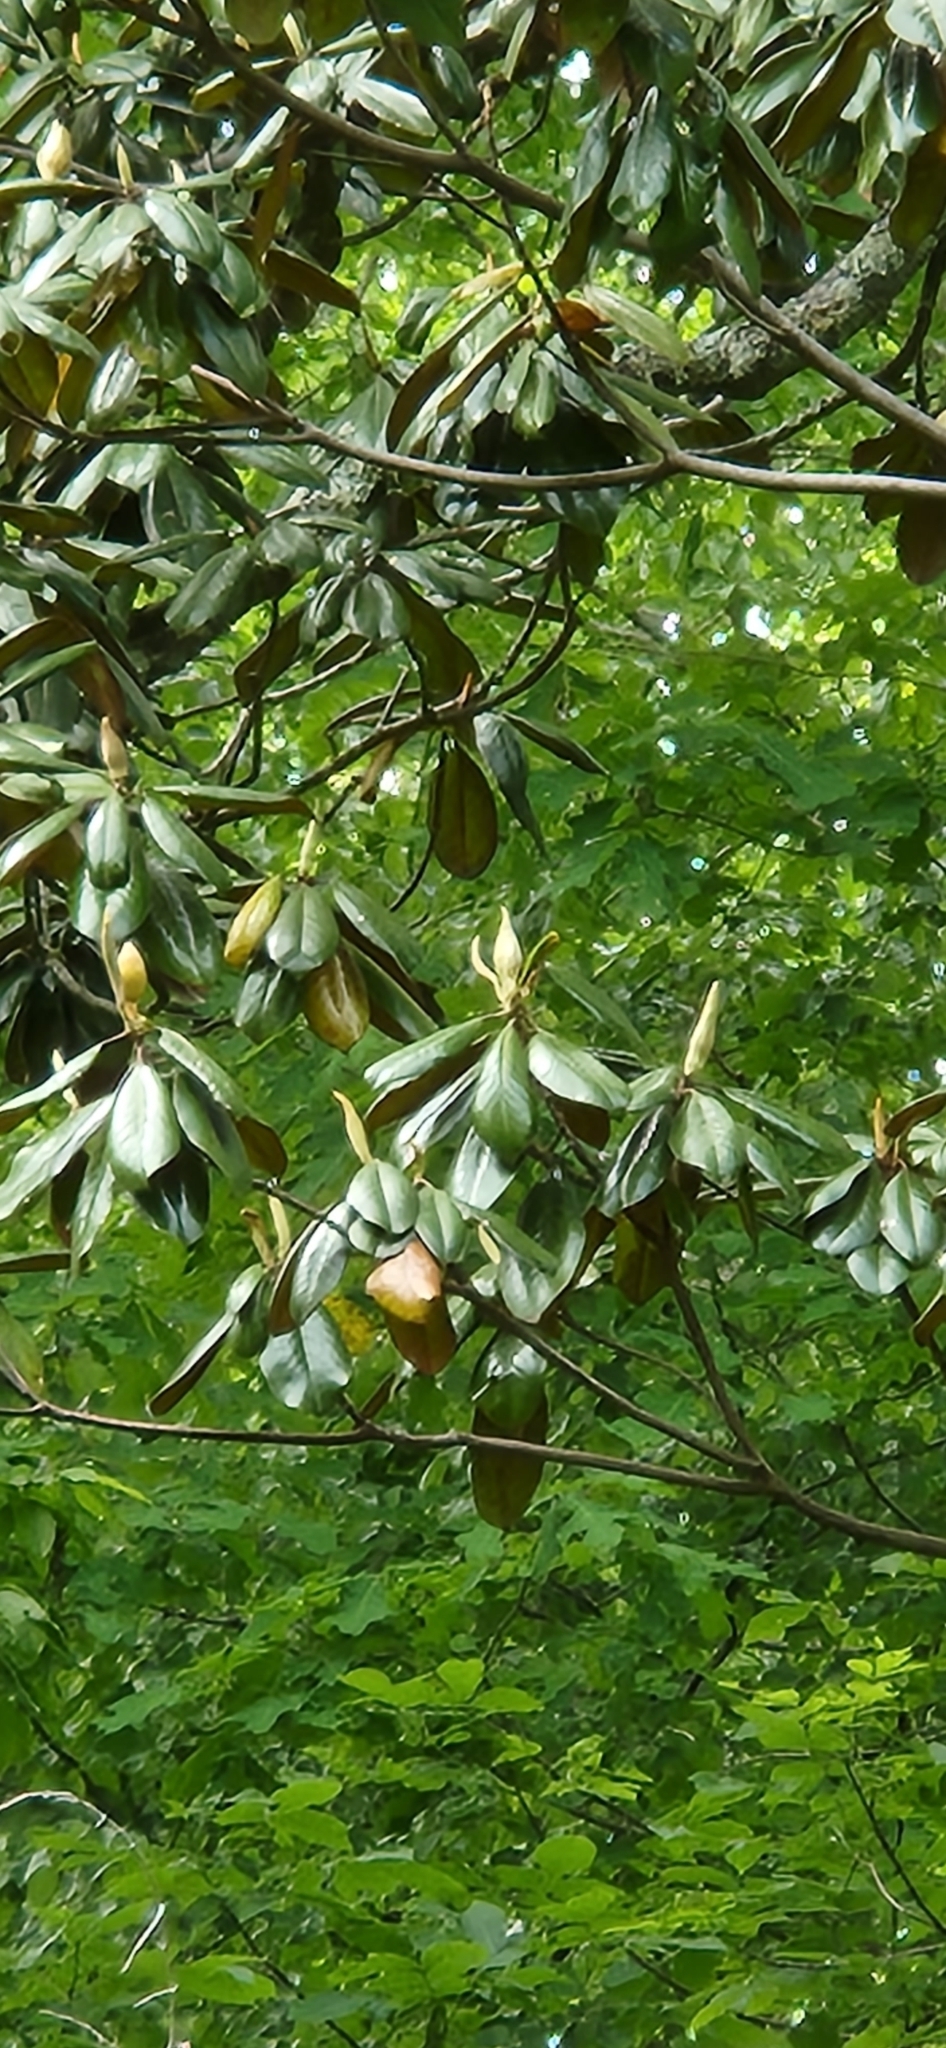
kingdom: Plantae
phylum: Tracheophyta
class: Magnoliopsida
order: Magnoliales
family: Magnoliaceae
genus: Magnolia
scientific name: Magnolia grandiflora
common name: Southern magnolia
